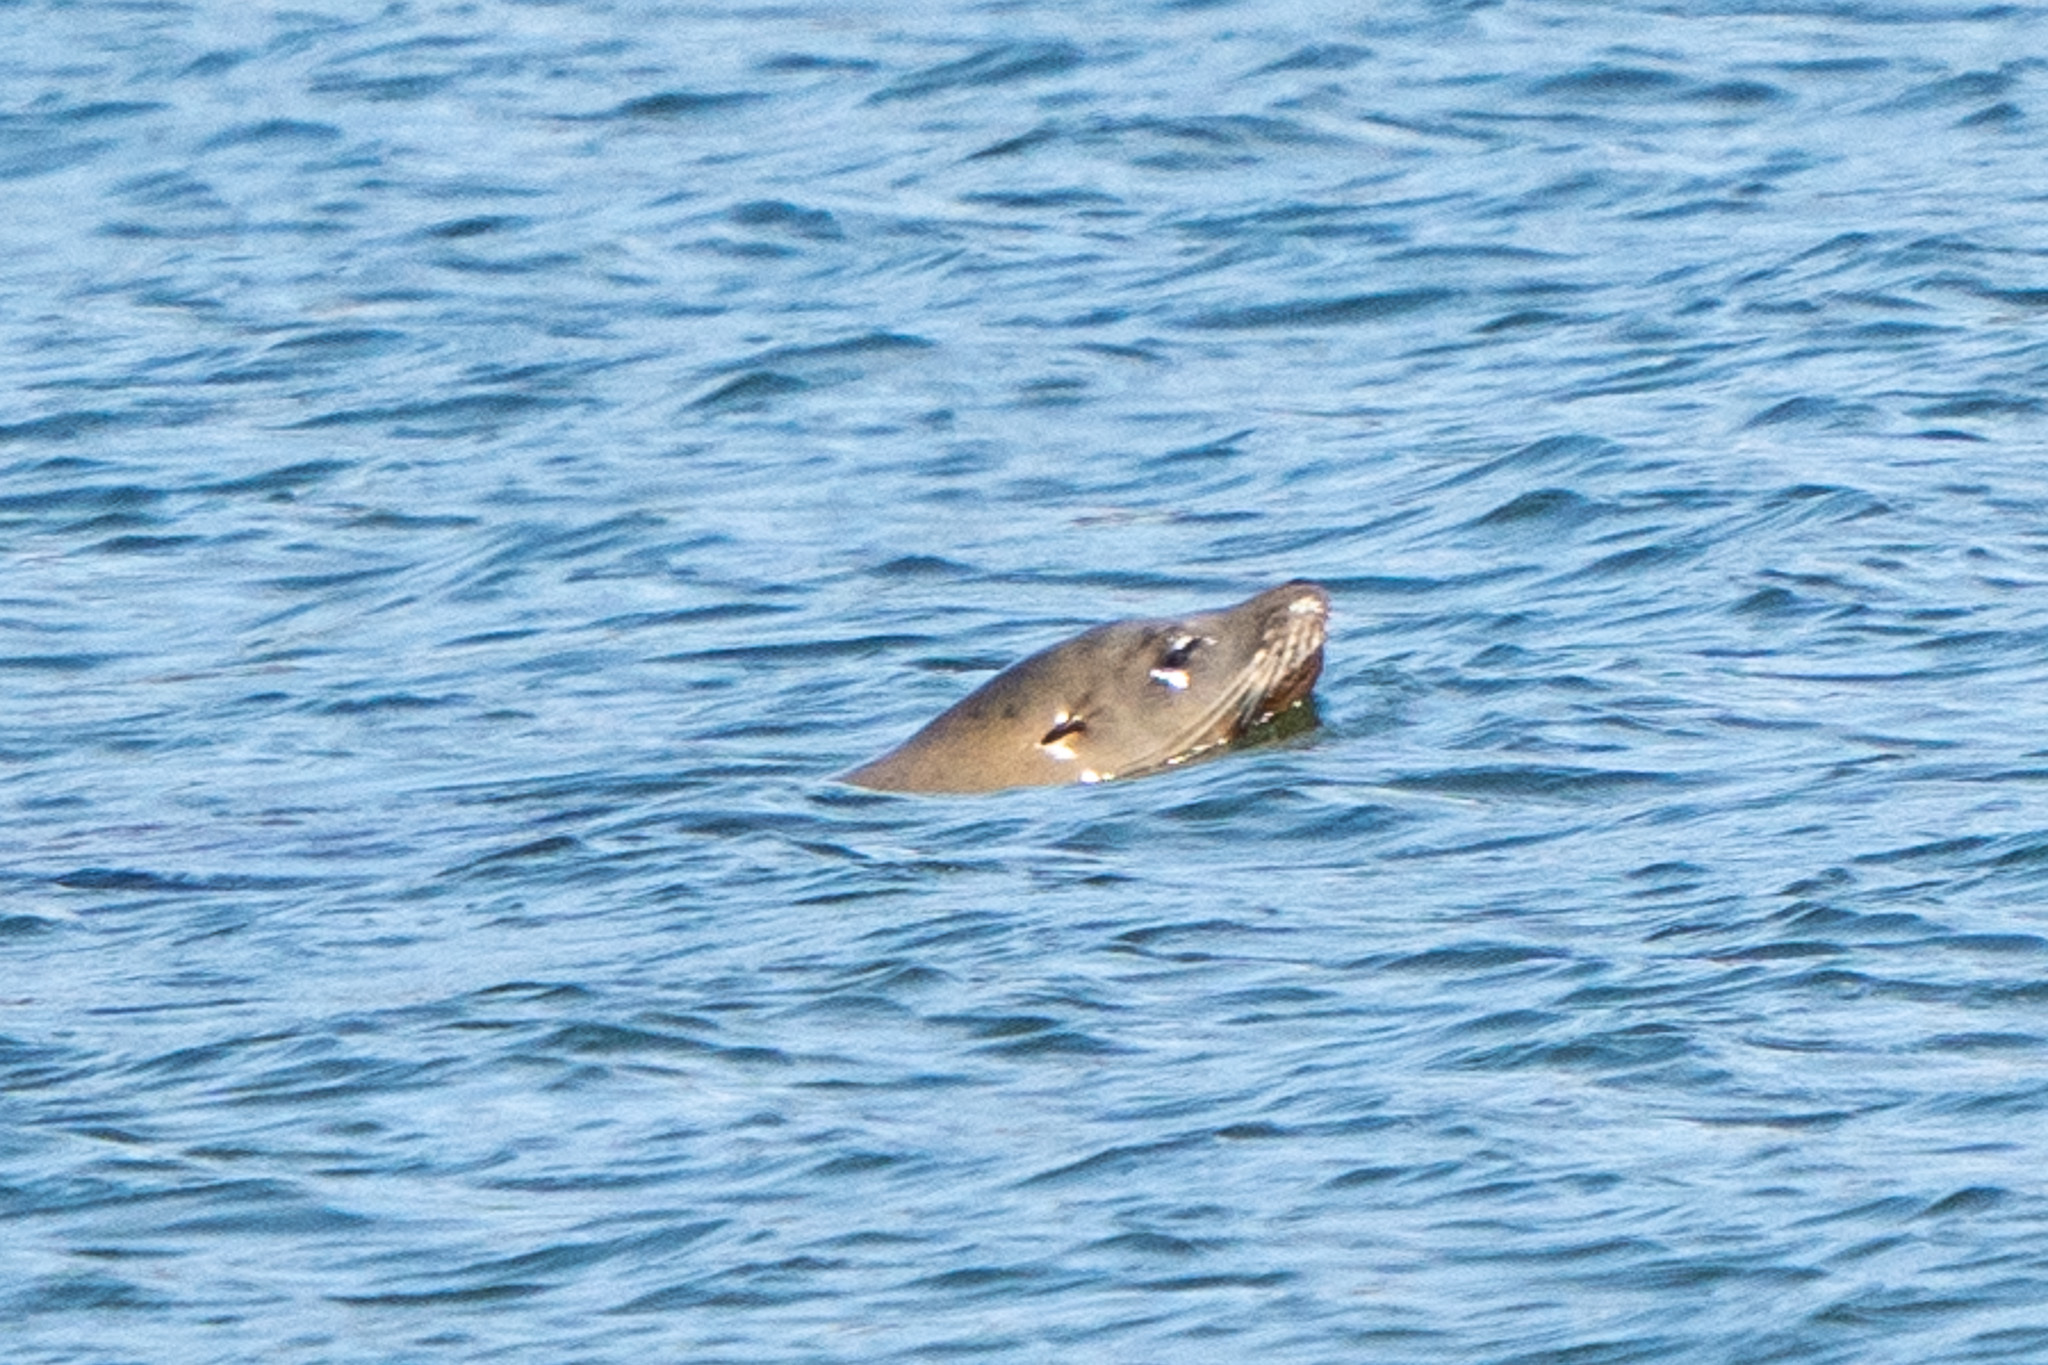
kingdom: Animalia
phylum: Chordata
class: Mammalia
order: Carnivora
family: Otariidae
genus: Zalophus
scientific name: Zalophus californianus
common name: California sea lion
